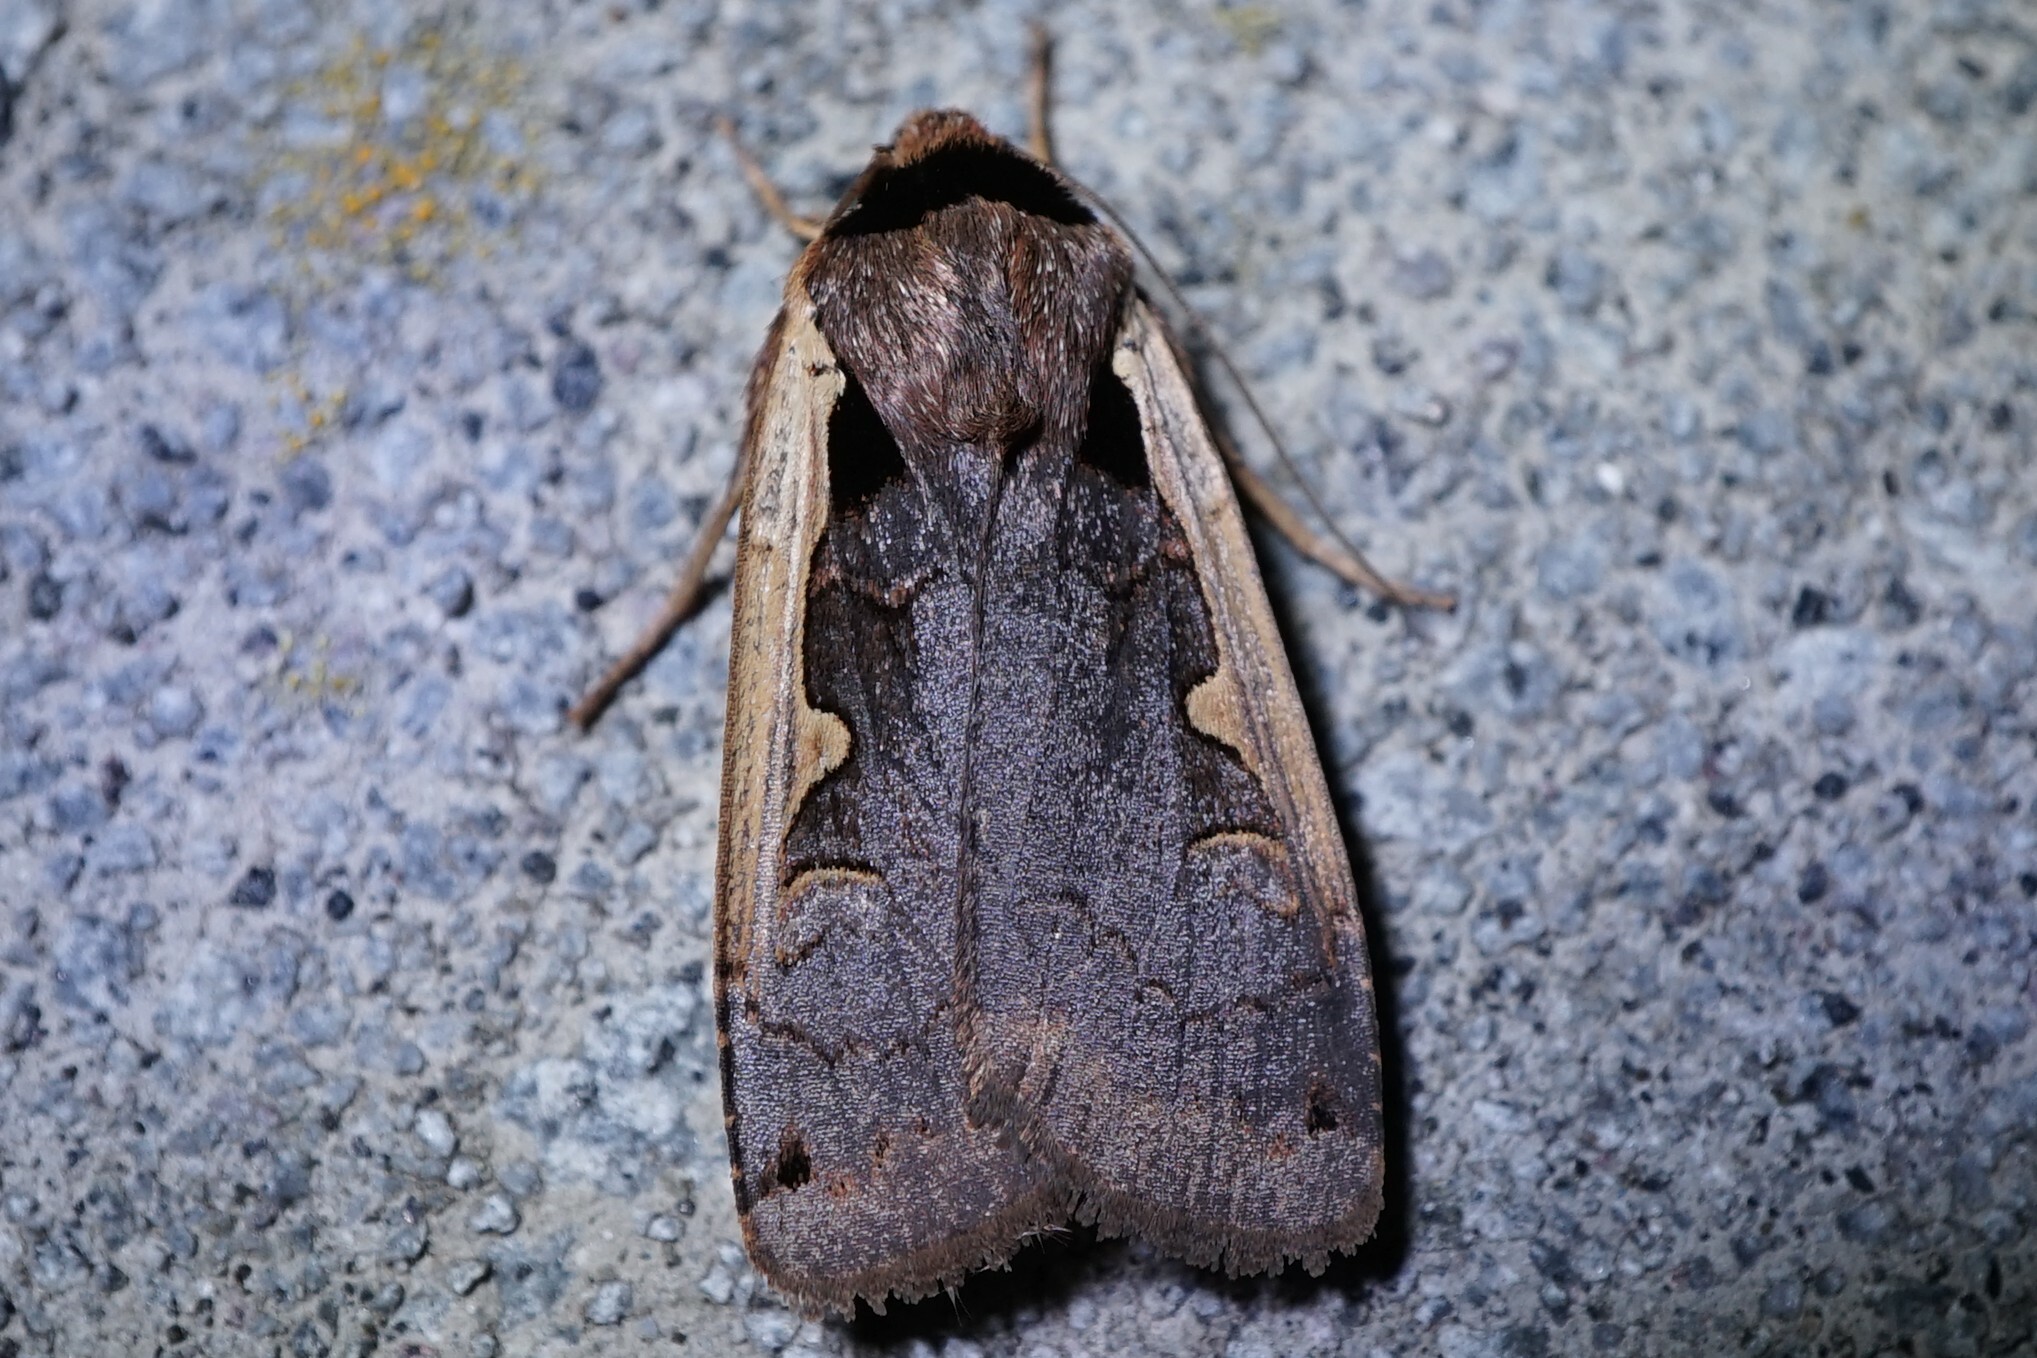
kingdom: Animalia
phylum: Arthropoda
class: Insecta
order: Lepidoptera
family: Noctuidae
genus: Dichagyris
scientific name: Dichagyris triangularis
